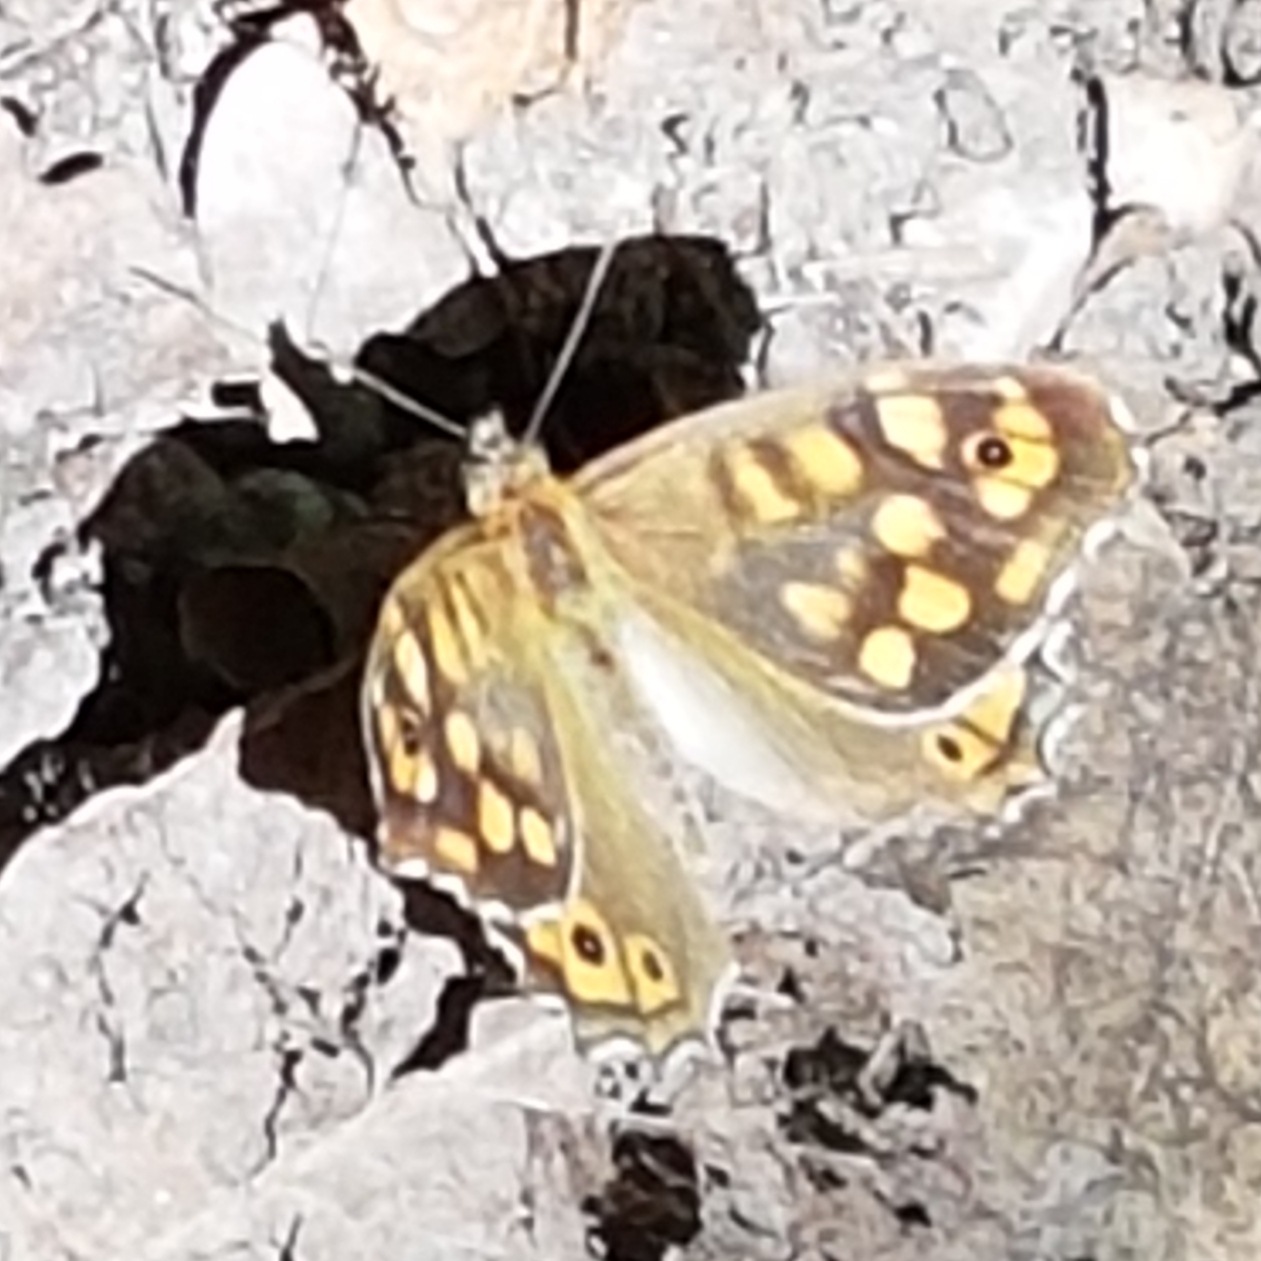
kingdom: Animalia
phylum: Arthropoda
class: Insecta
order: Lepidoptera
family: Nymphalidae
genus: Pararge
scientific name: Pararge aegeria
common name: Speckled wood
